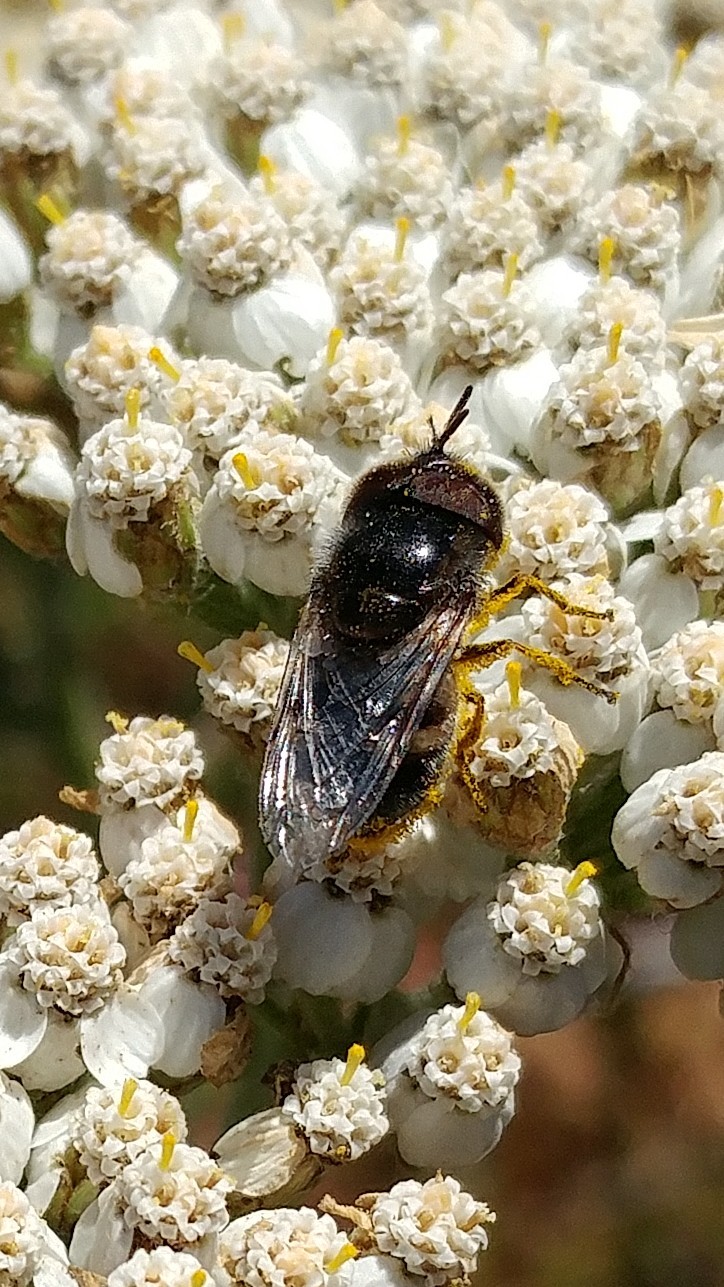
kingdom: Animalia
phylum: Arthropoda
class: Insecta
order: Diptera
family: Syrphidae
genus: Copestylum
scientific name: Copestylum lentum
